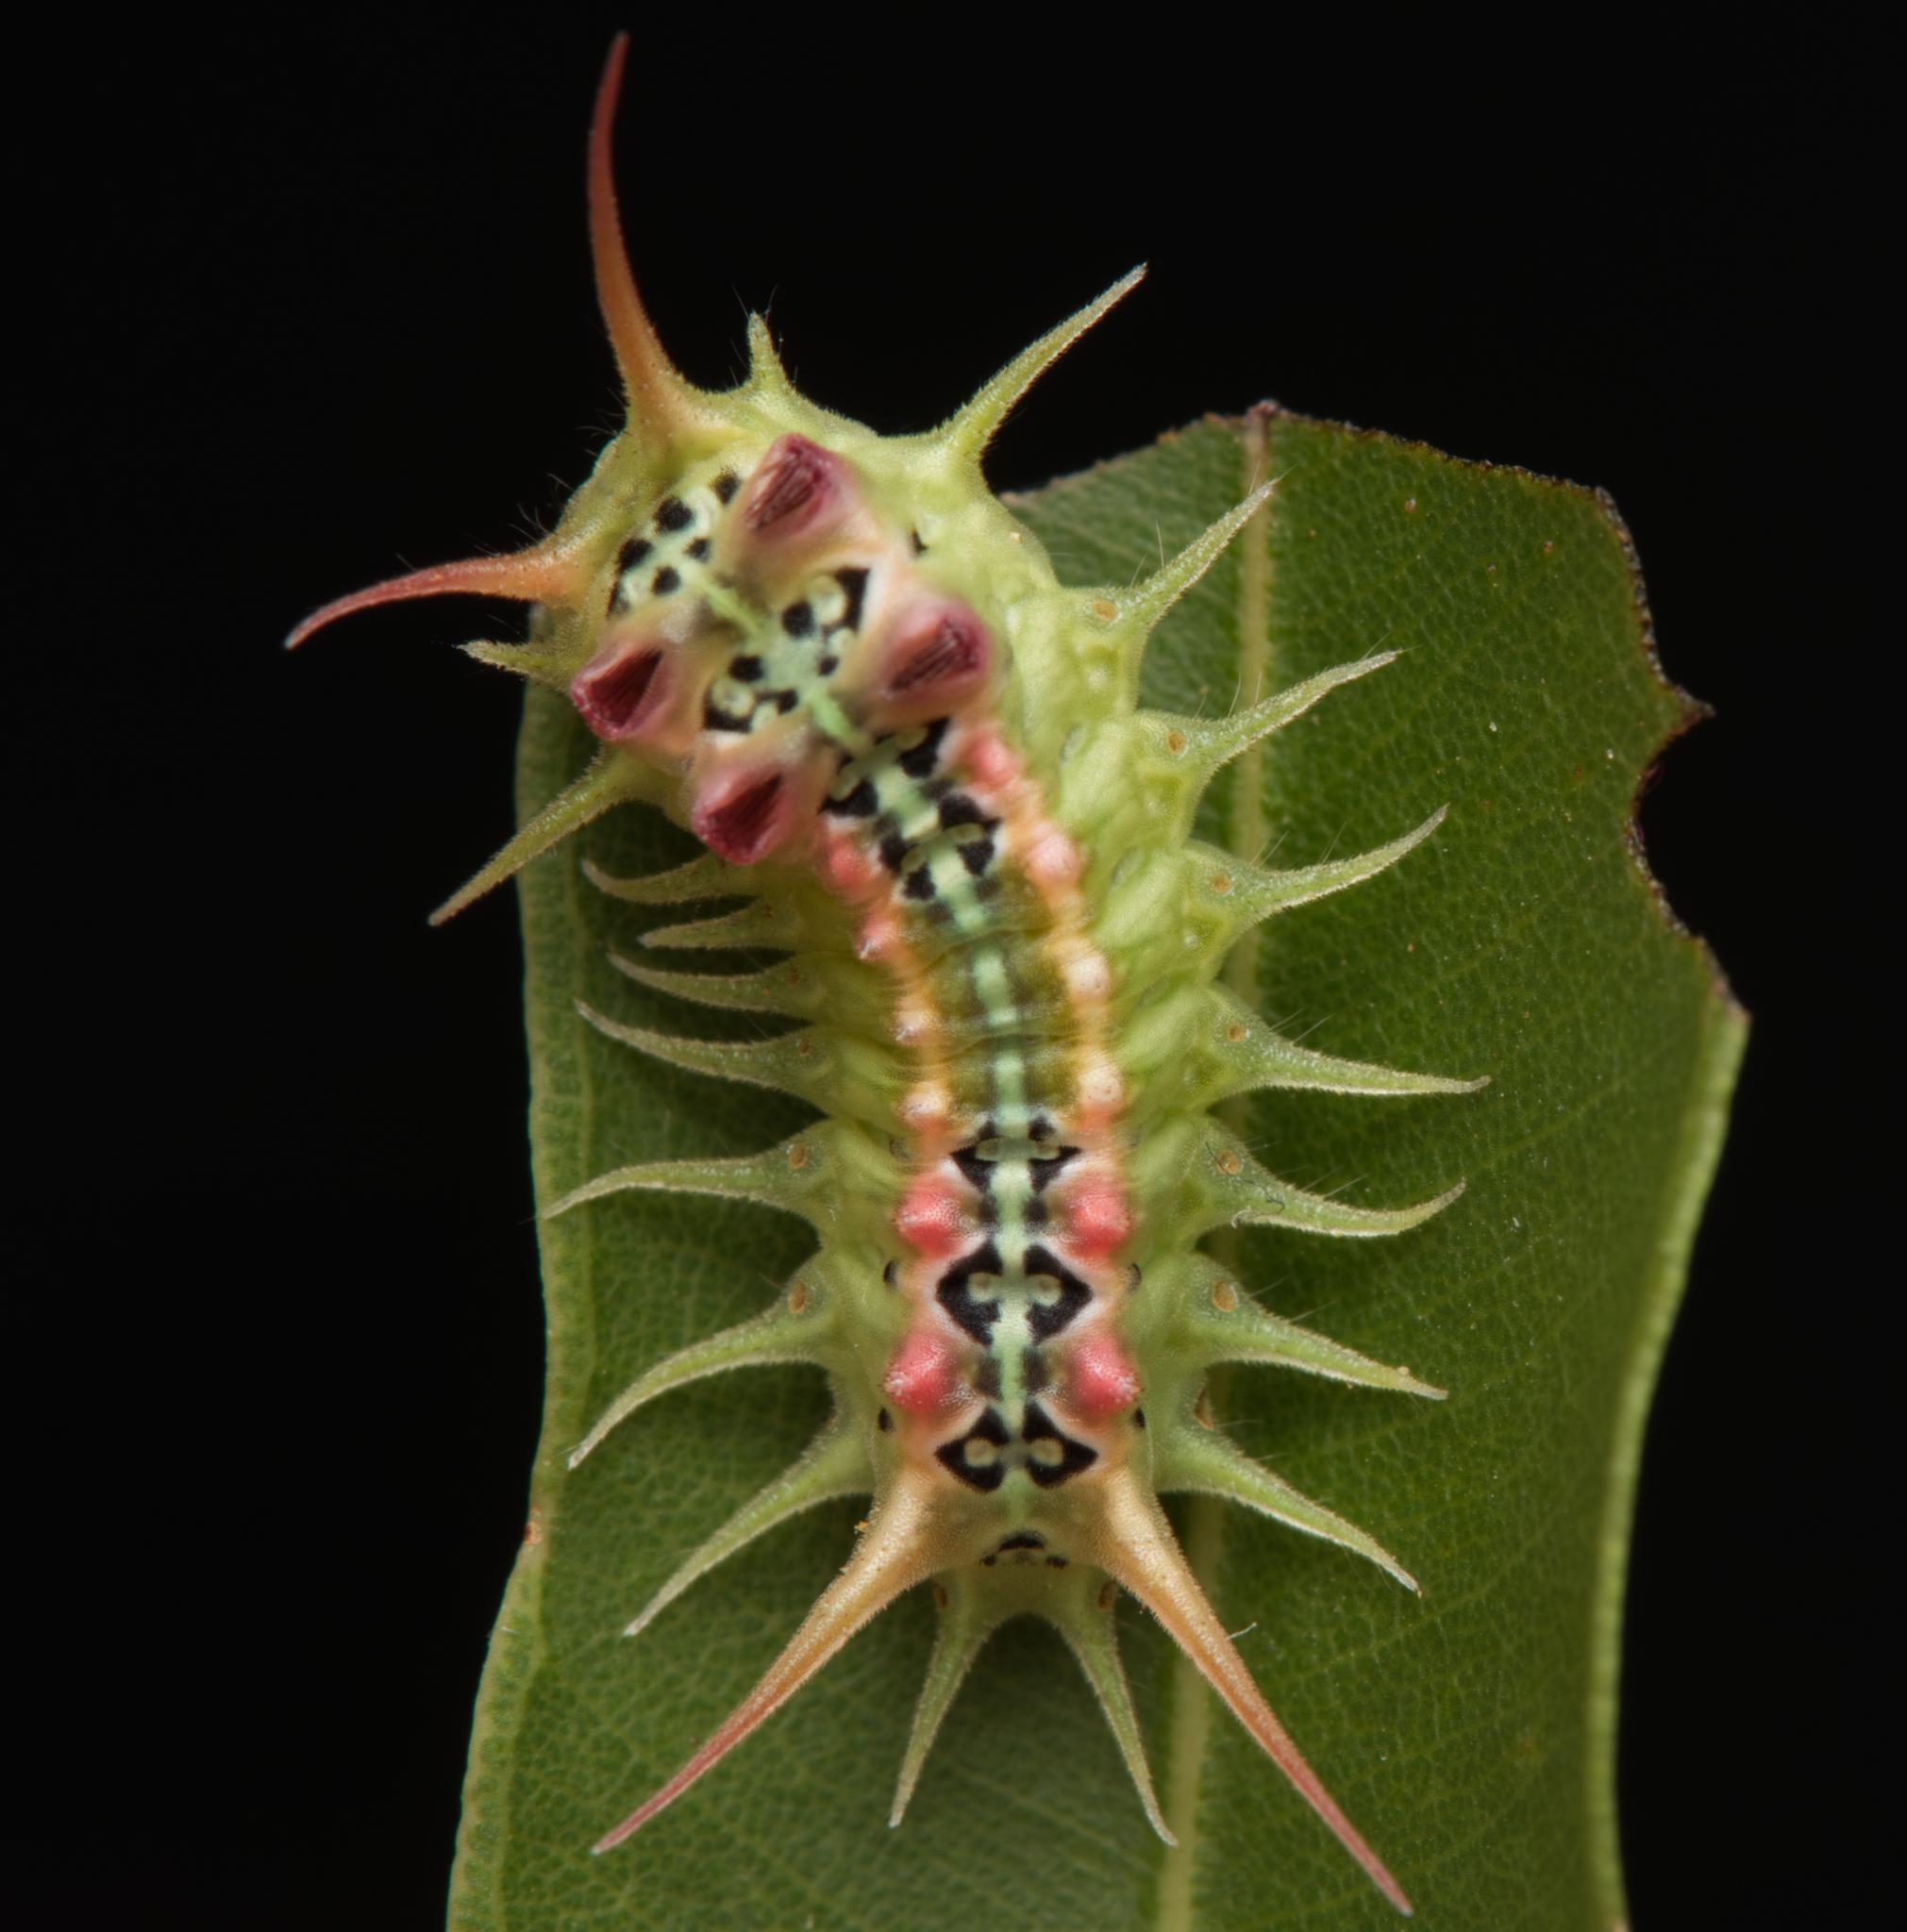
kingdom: Animalia
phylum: Arthropoda
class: Insecta
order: Lepidoptera
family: Limacodidae
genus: Doratifera
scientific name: Doratifera quadriguttata
